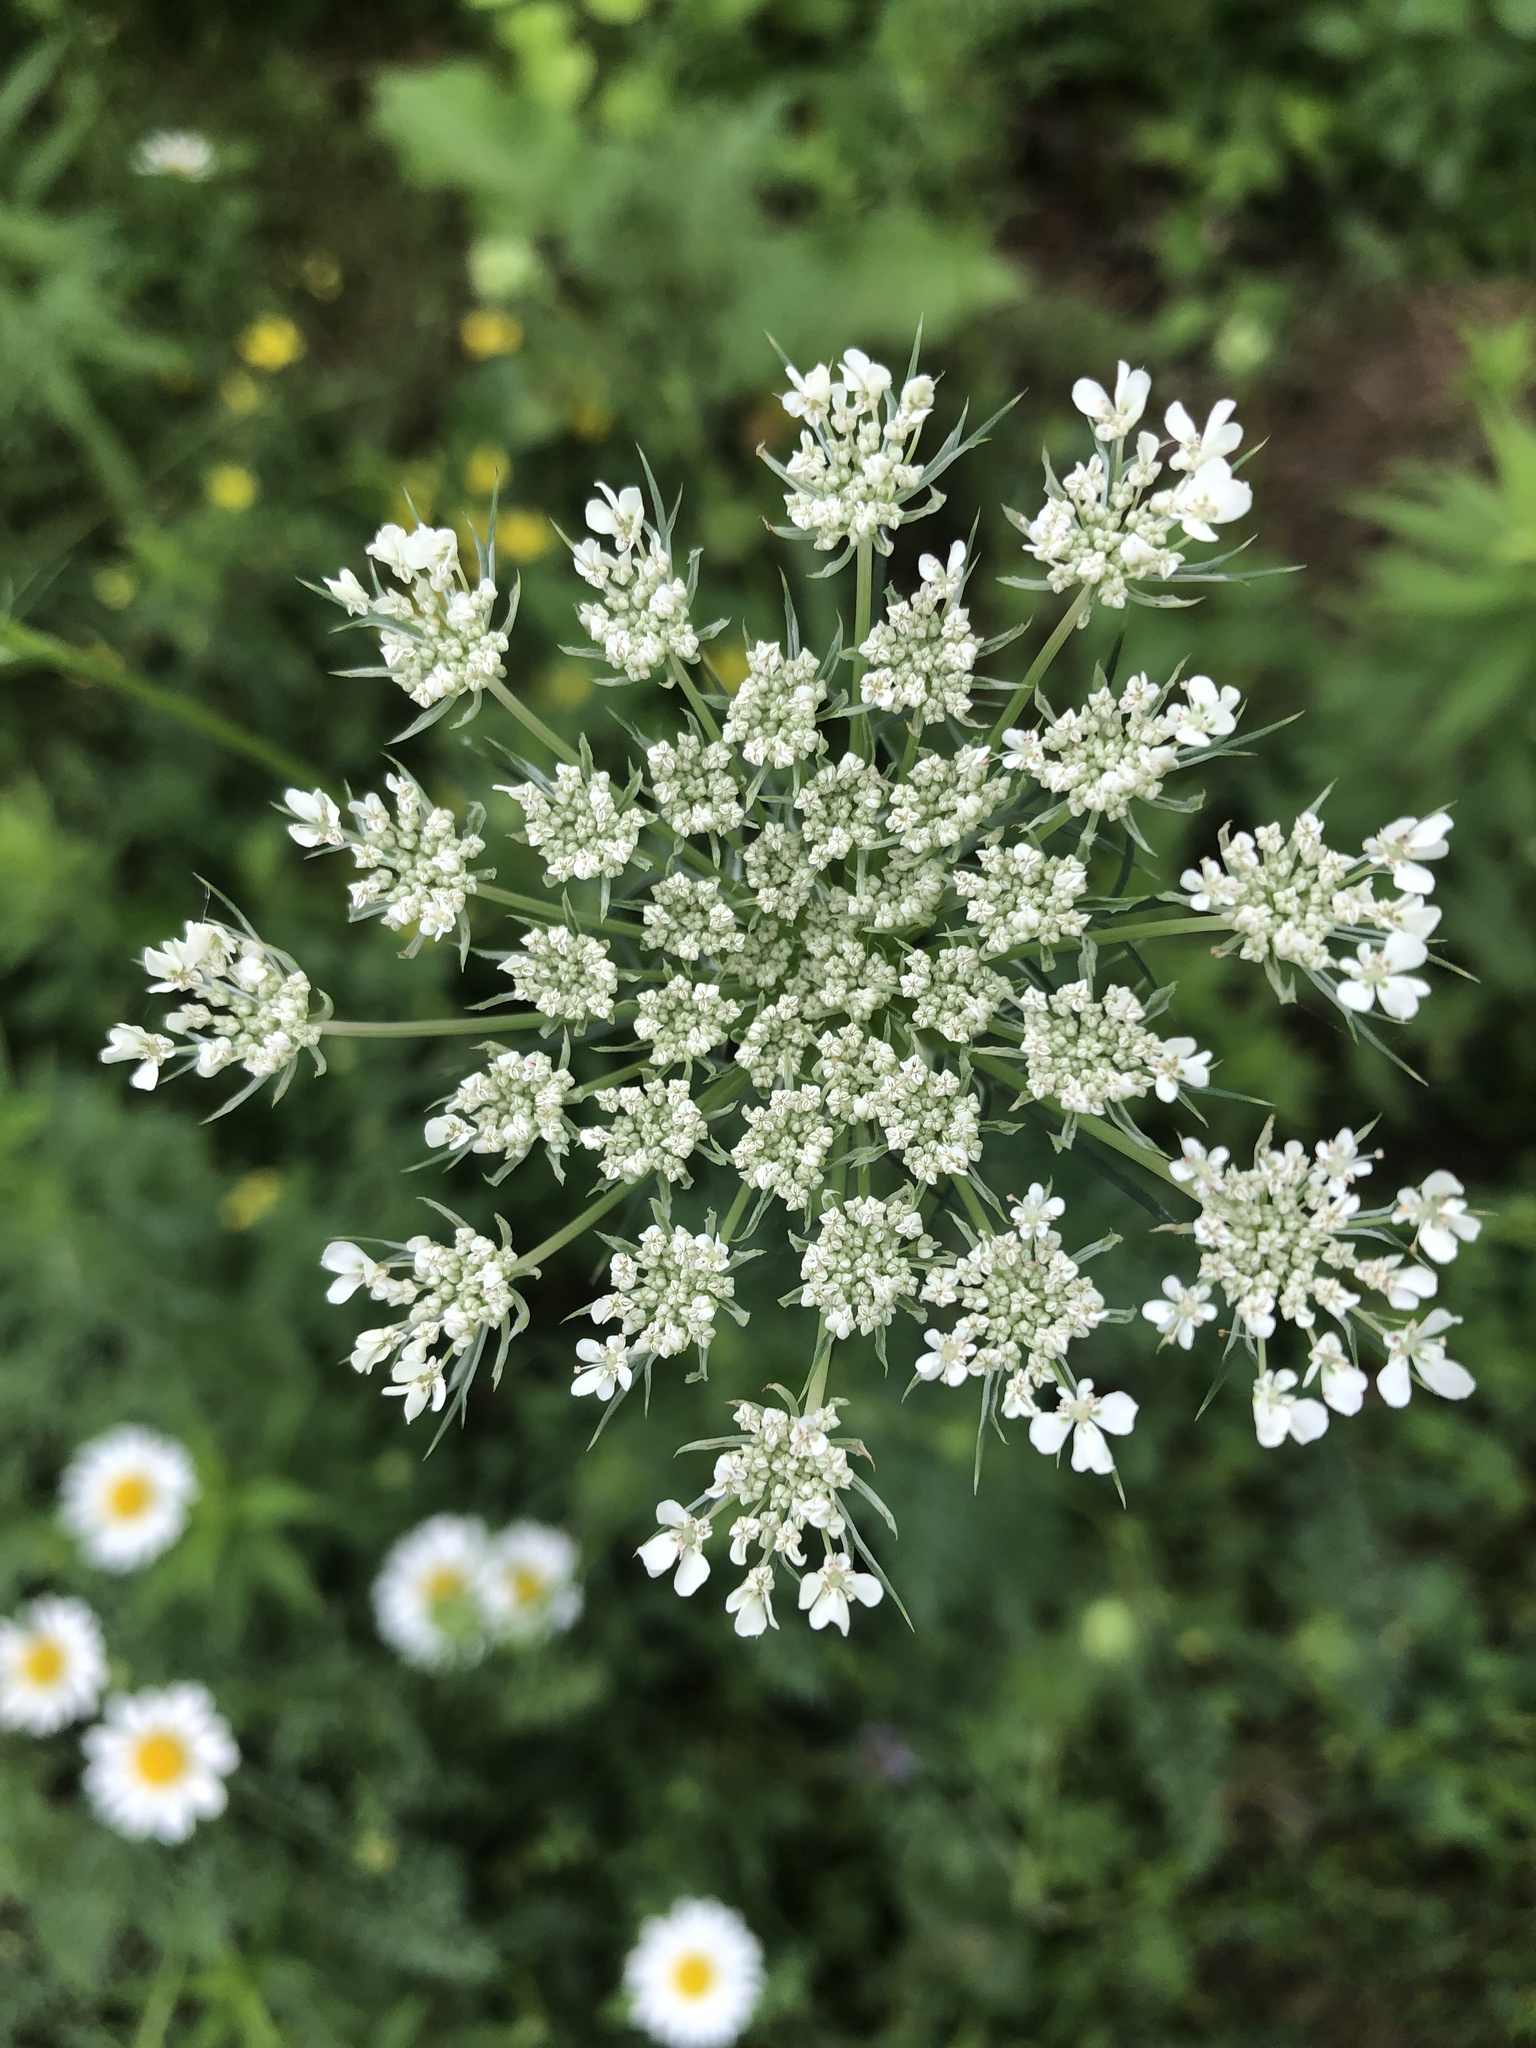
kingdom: Plantae
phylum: Tracheophyta
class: Magnoliopsida
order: Apiales
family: Apiaceae
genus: Daucus
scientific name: Daucus carota
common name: Wild carrot
